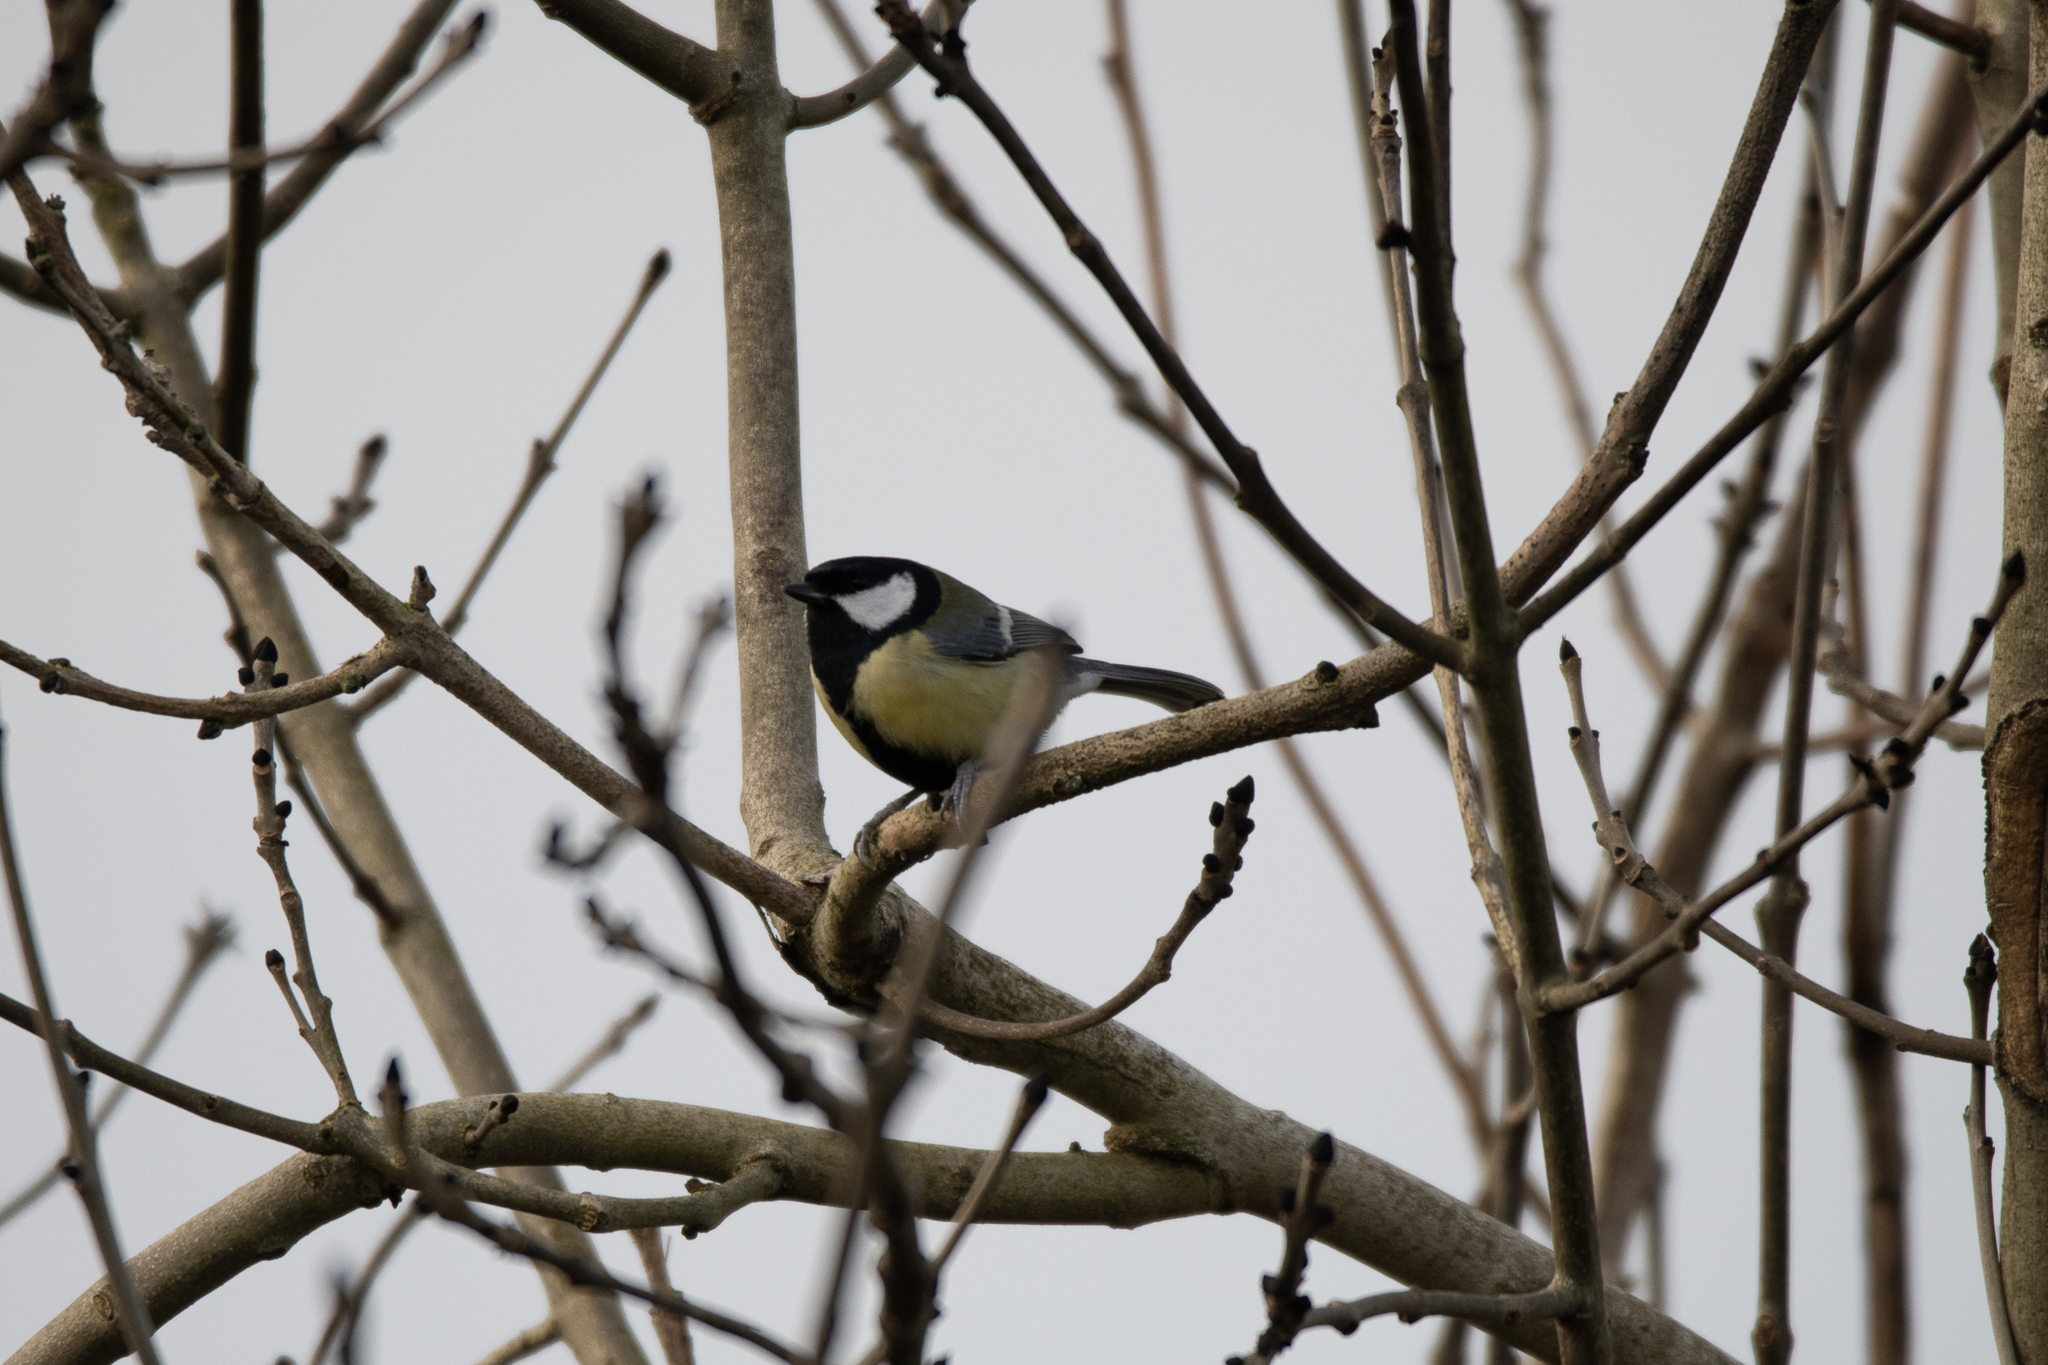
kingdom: Animalia
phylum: Chordata
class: Aves
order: Passeriformes
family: Paridae
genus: Parus
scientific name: Parus major
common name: Great tit
